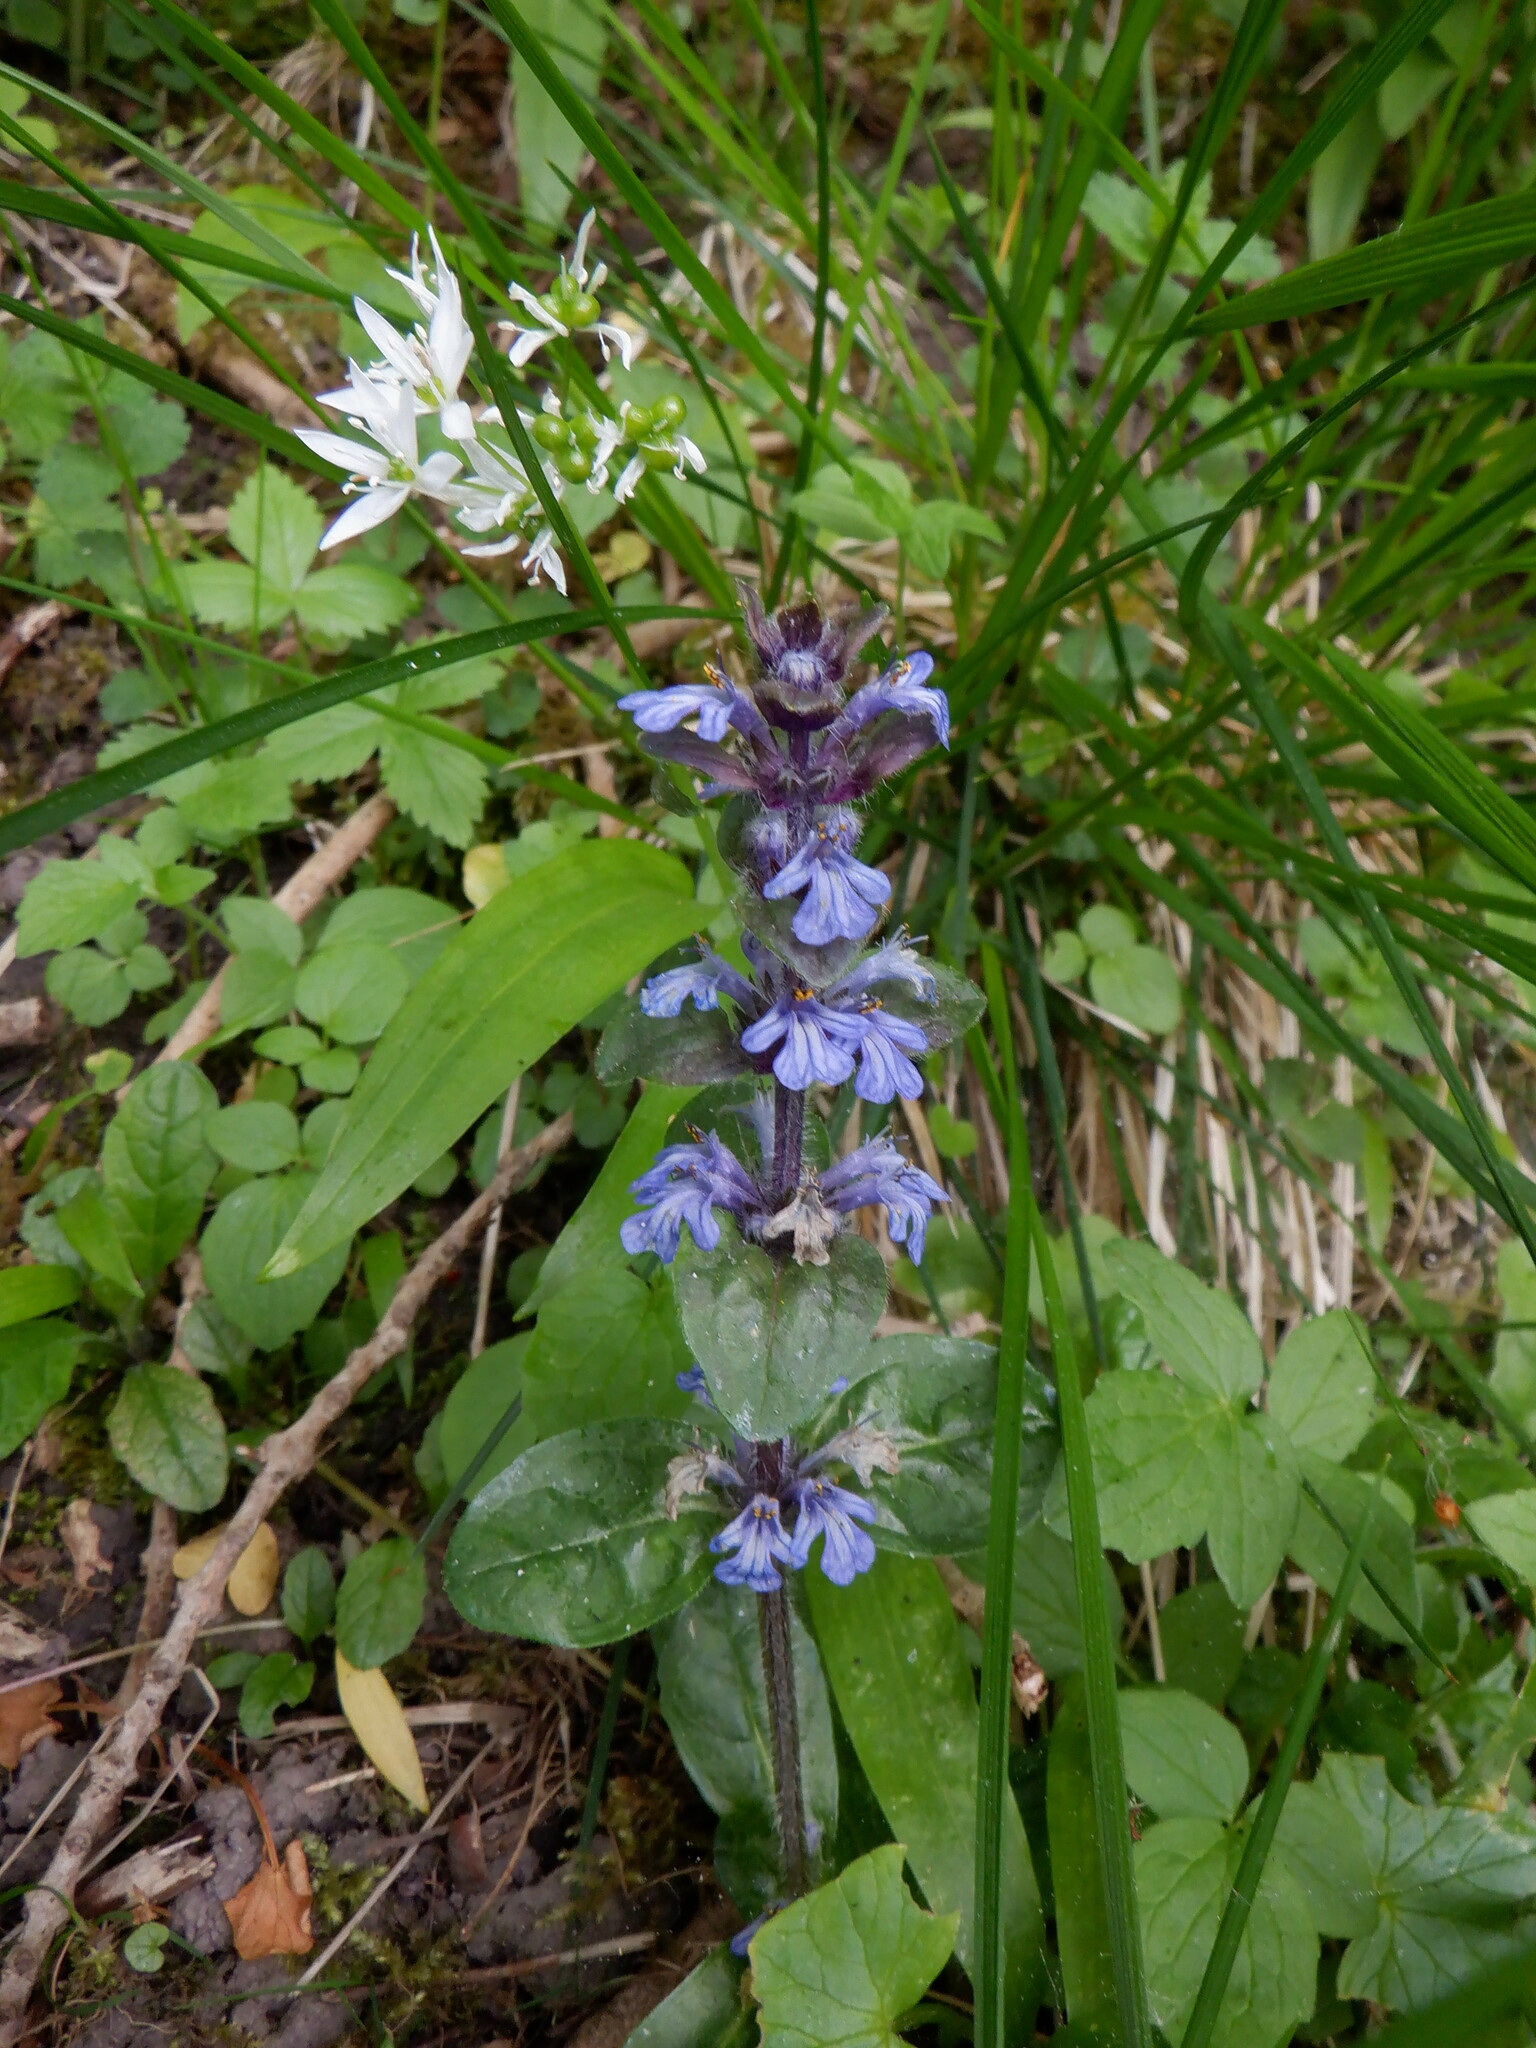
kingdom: Plantae
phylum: Tracheophyta
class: Magnoliopsida
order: Lamiales
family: Lamiaceae
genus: Ajuga
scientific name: Ajuga reptans
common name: Bugle
